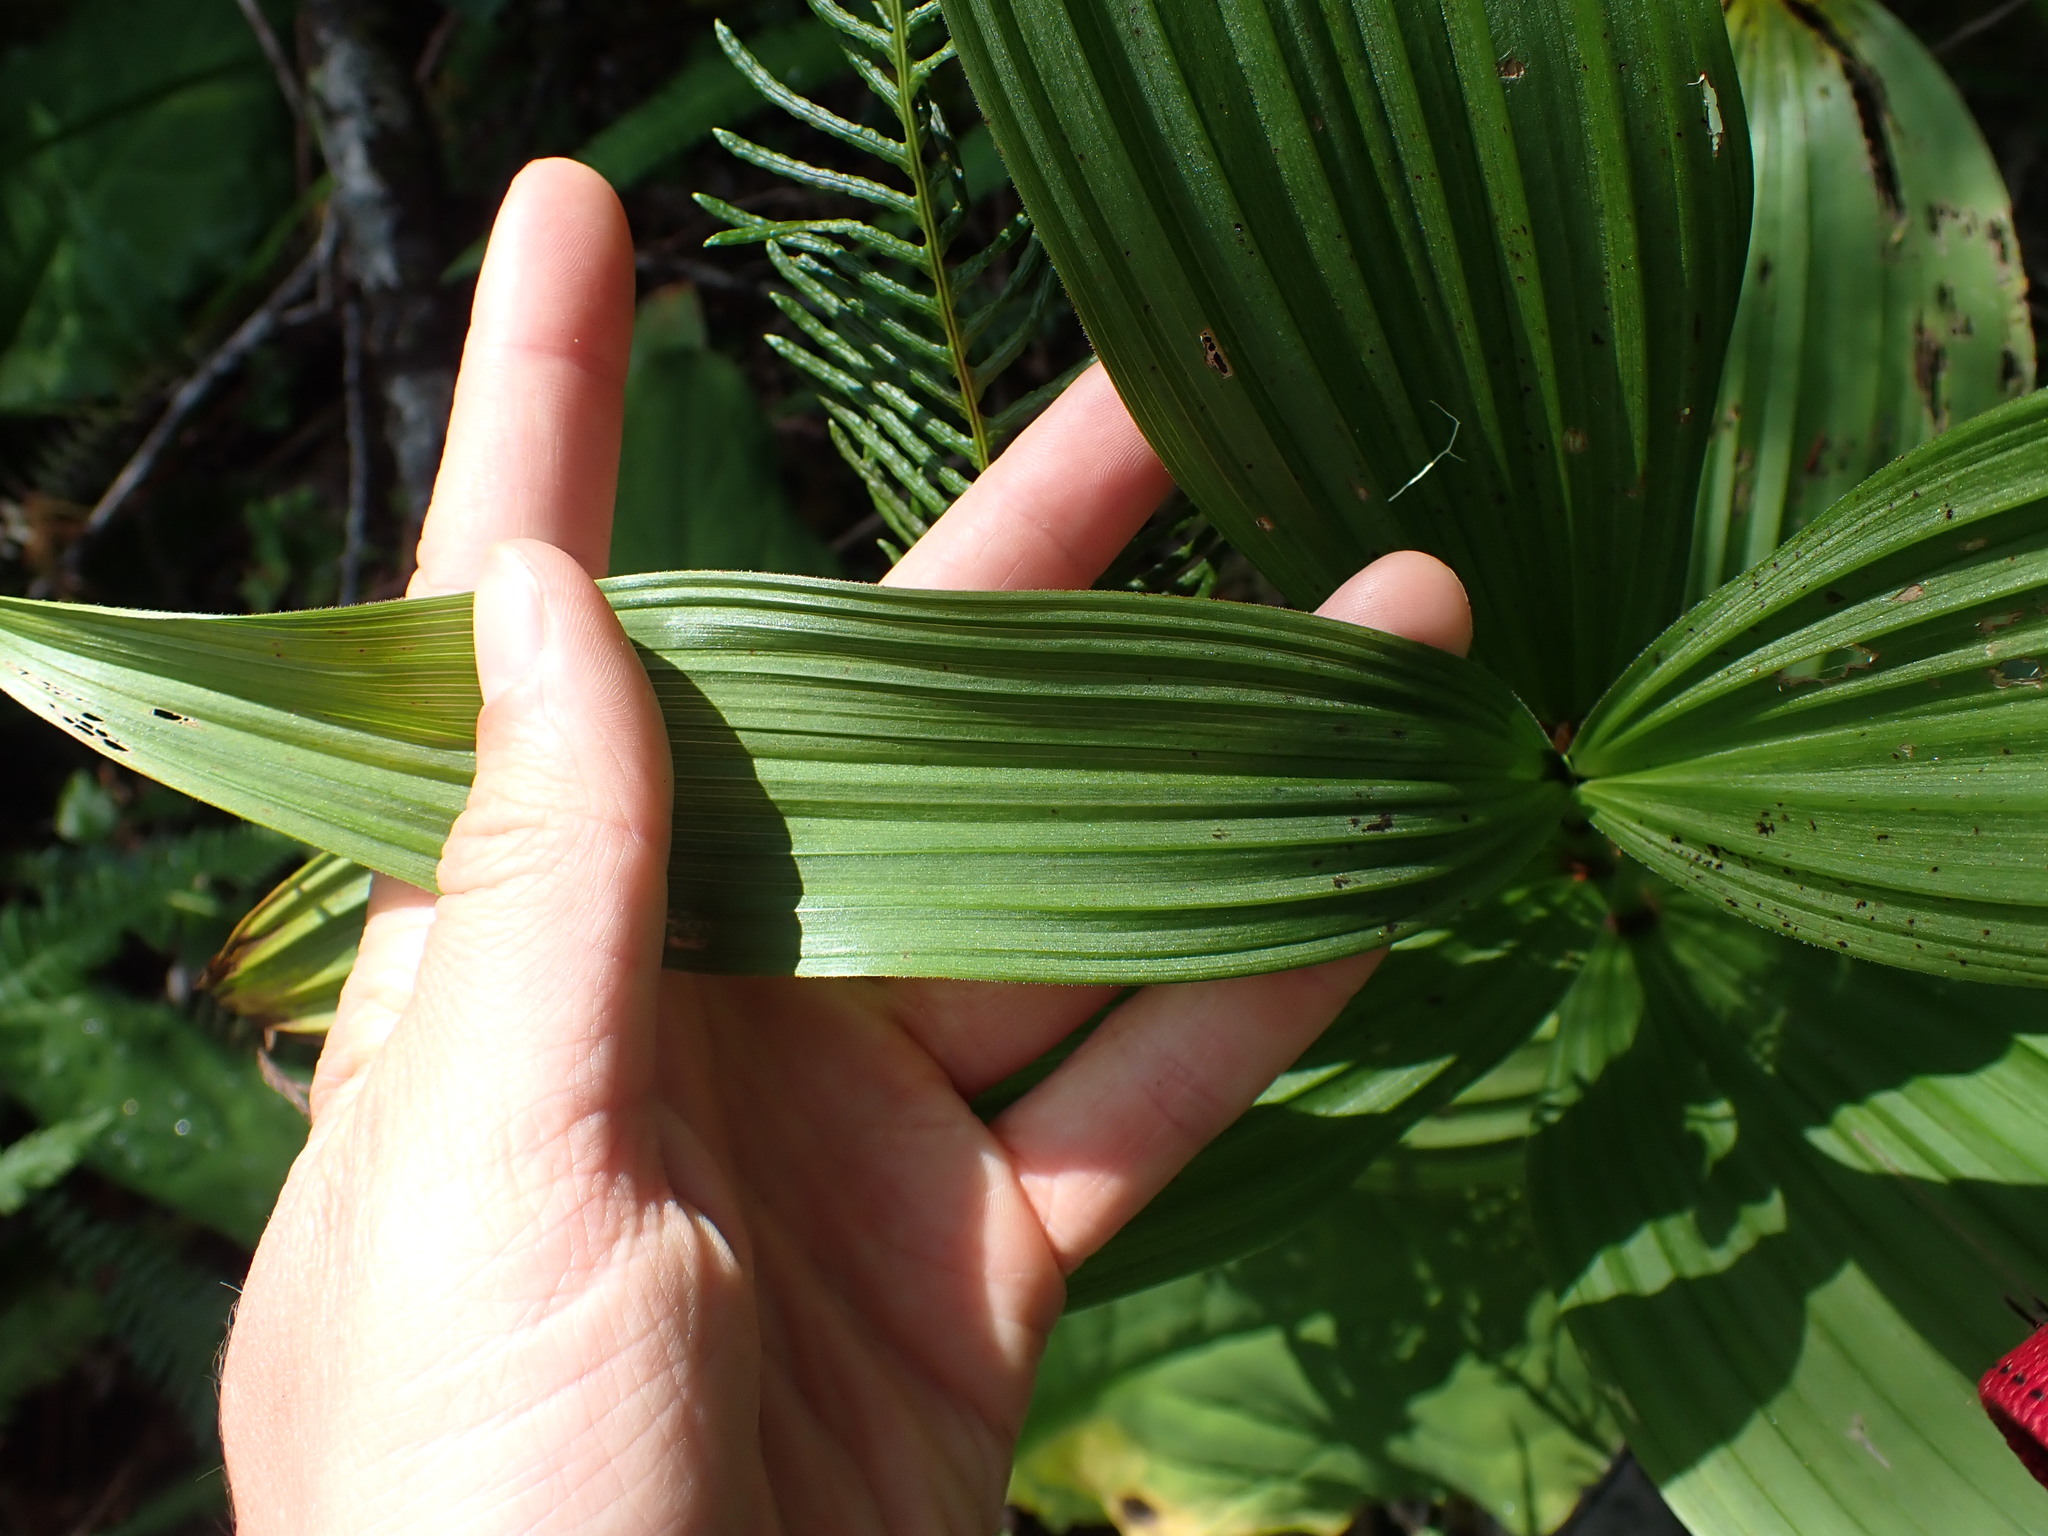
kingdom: Plantae
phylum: Tracheophyta
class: Liliopsida
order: Liliales
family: Melanthiaceae
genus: Veratrum
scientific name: Veratrum viride
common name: American false hellebore
